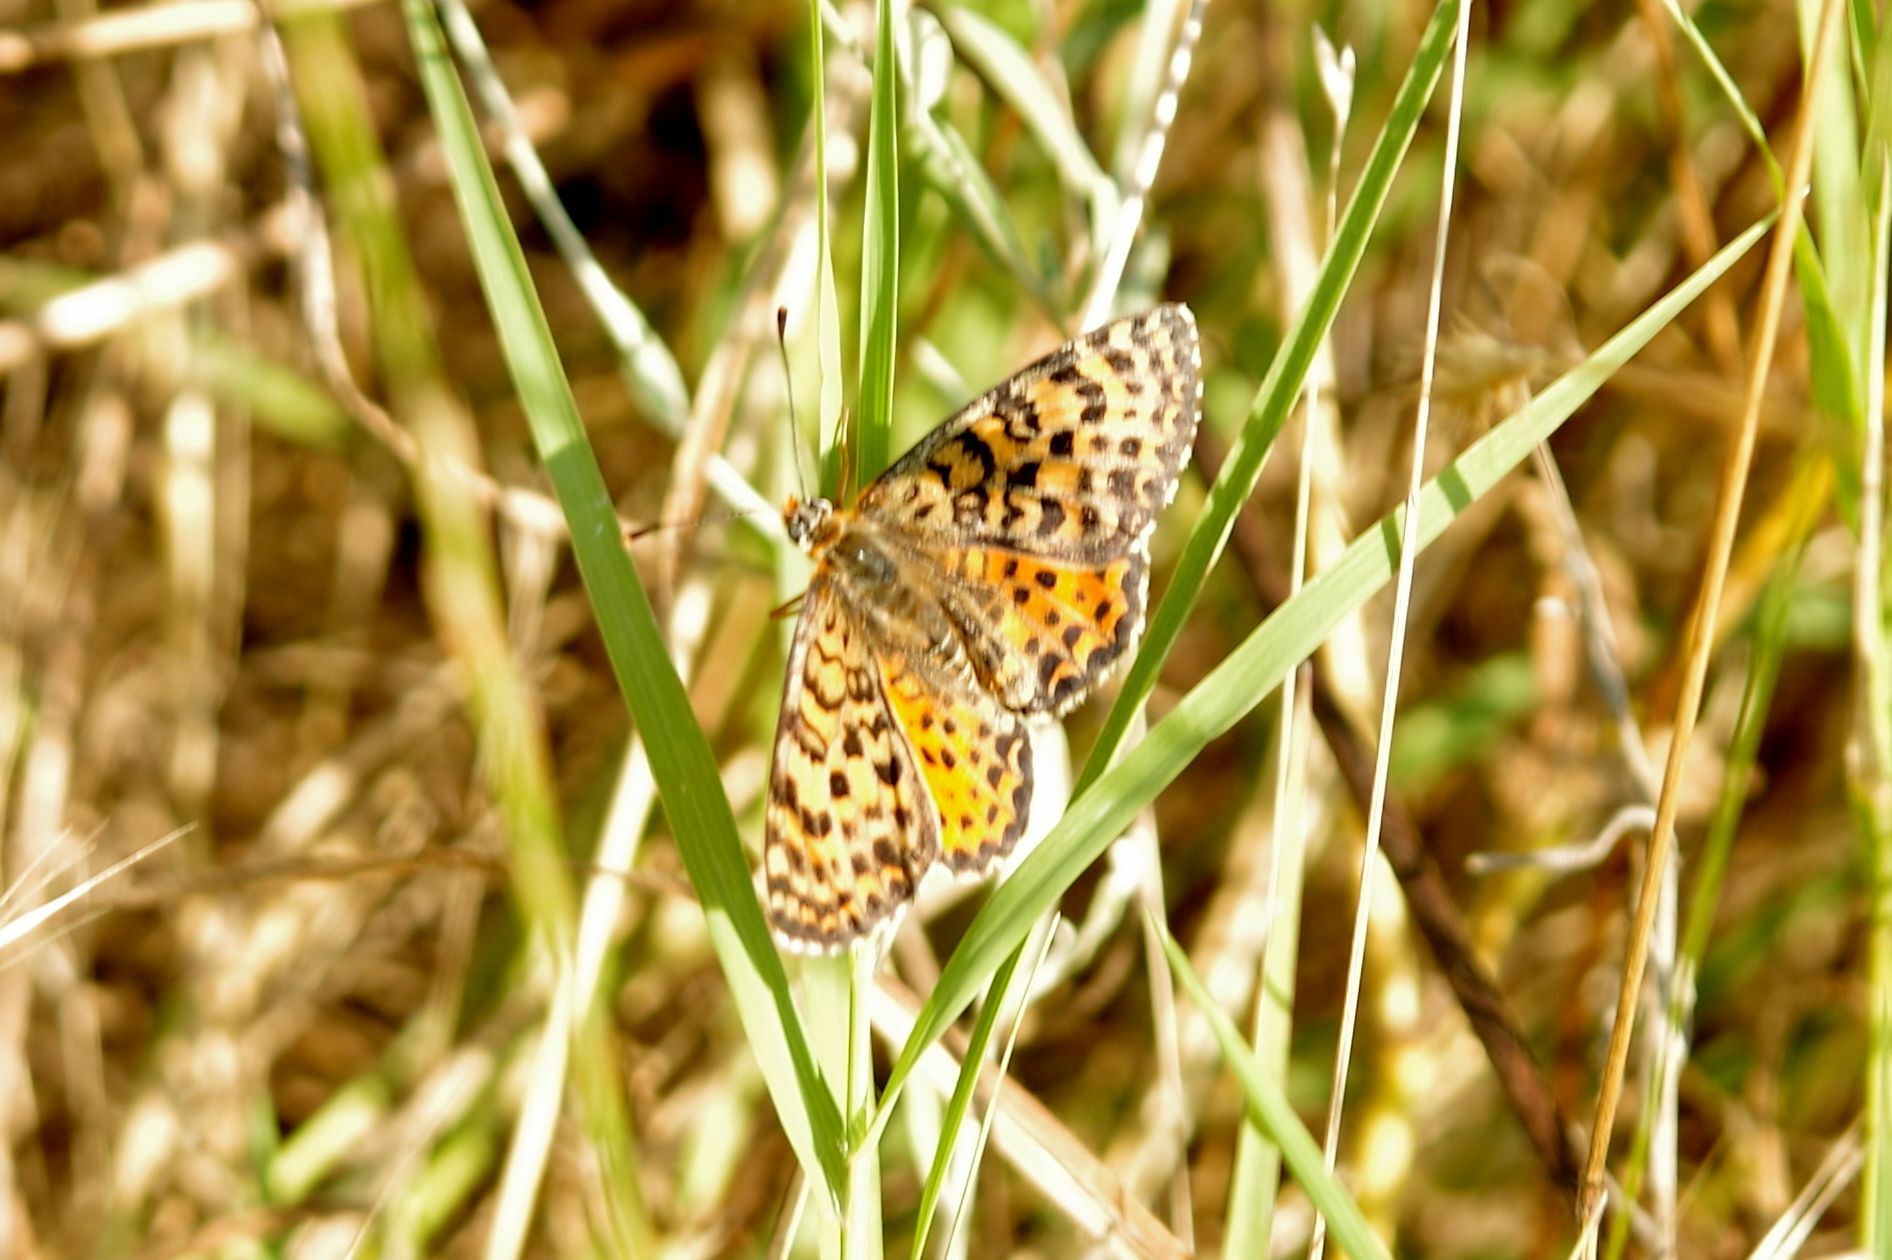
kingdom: Animalia
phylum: Arthropoda
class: Insecta
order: Lepidoptera
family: Nymphalidae
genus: Melitaea
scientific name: Melitaea didyma
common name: Spotted fritillary
